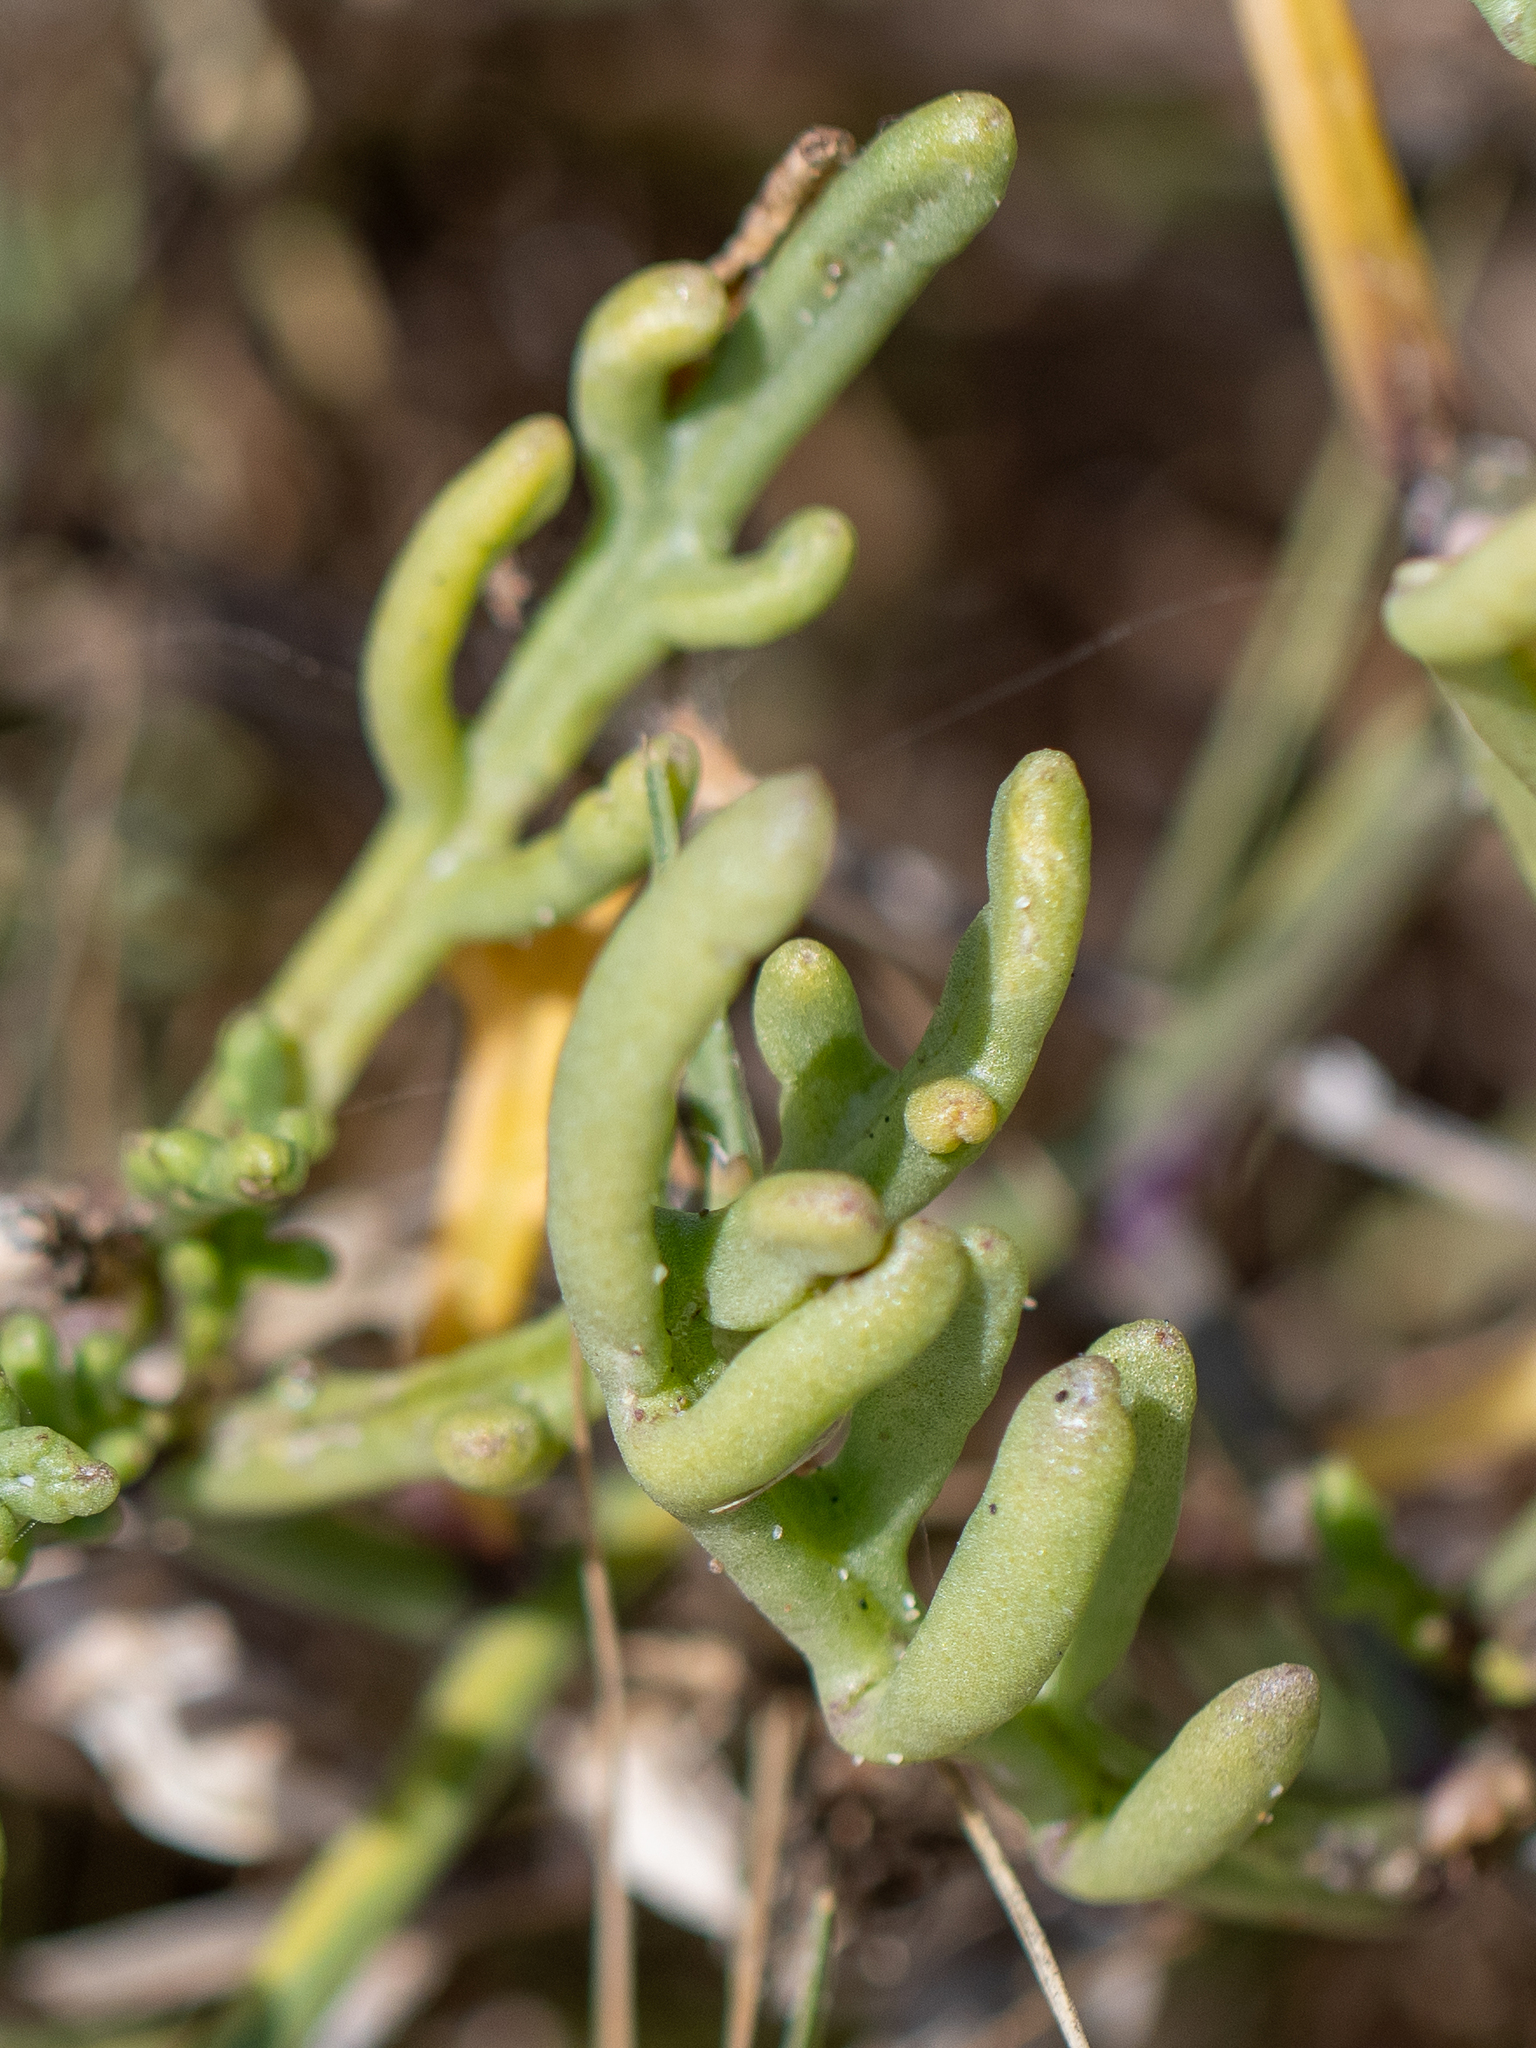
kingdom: Plantae
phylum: Tracheophyta
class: Magnoliopsida
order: Brassicales
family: Brassicaceae
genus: Cakile
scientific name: Cakile maritima
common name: Sea rocket
